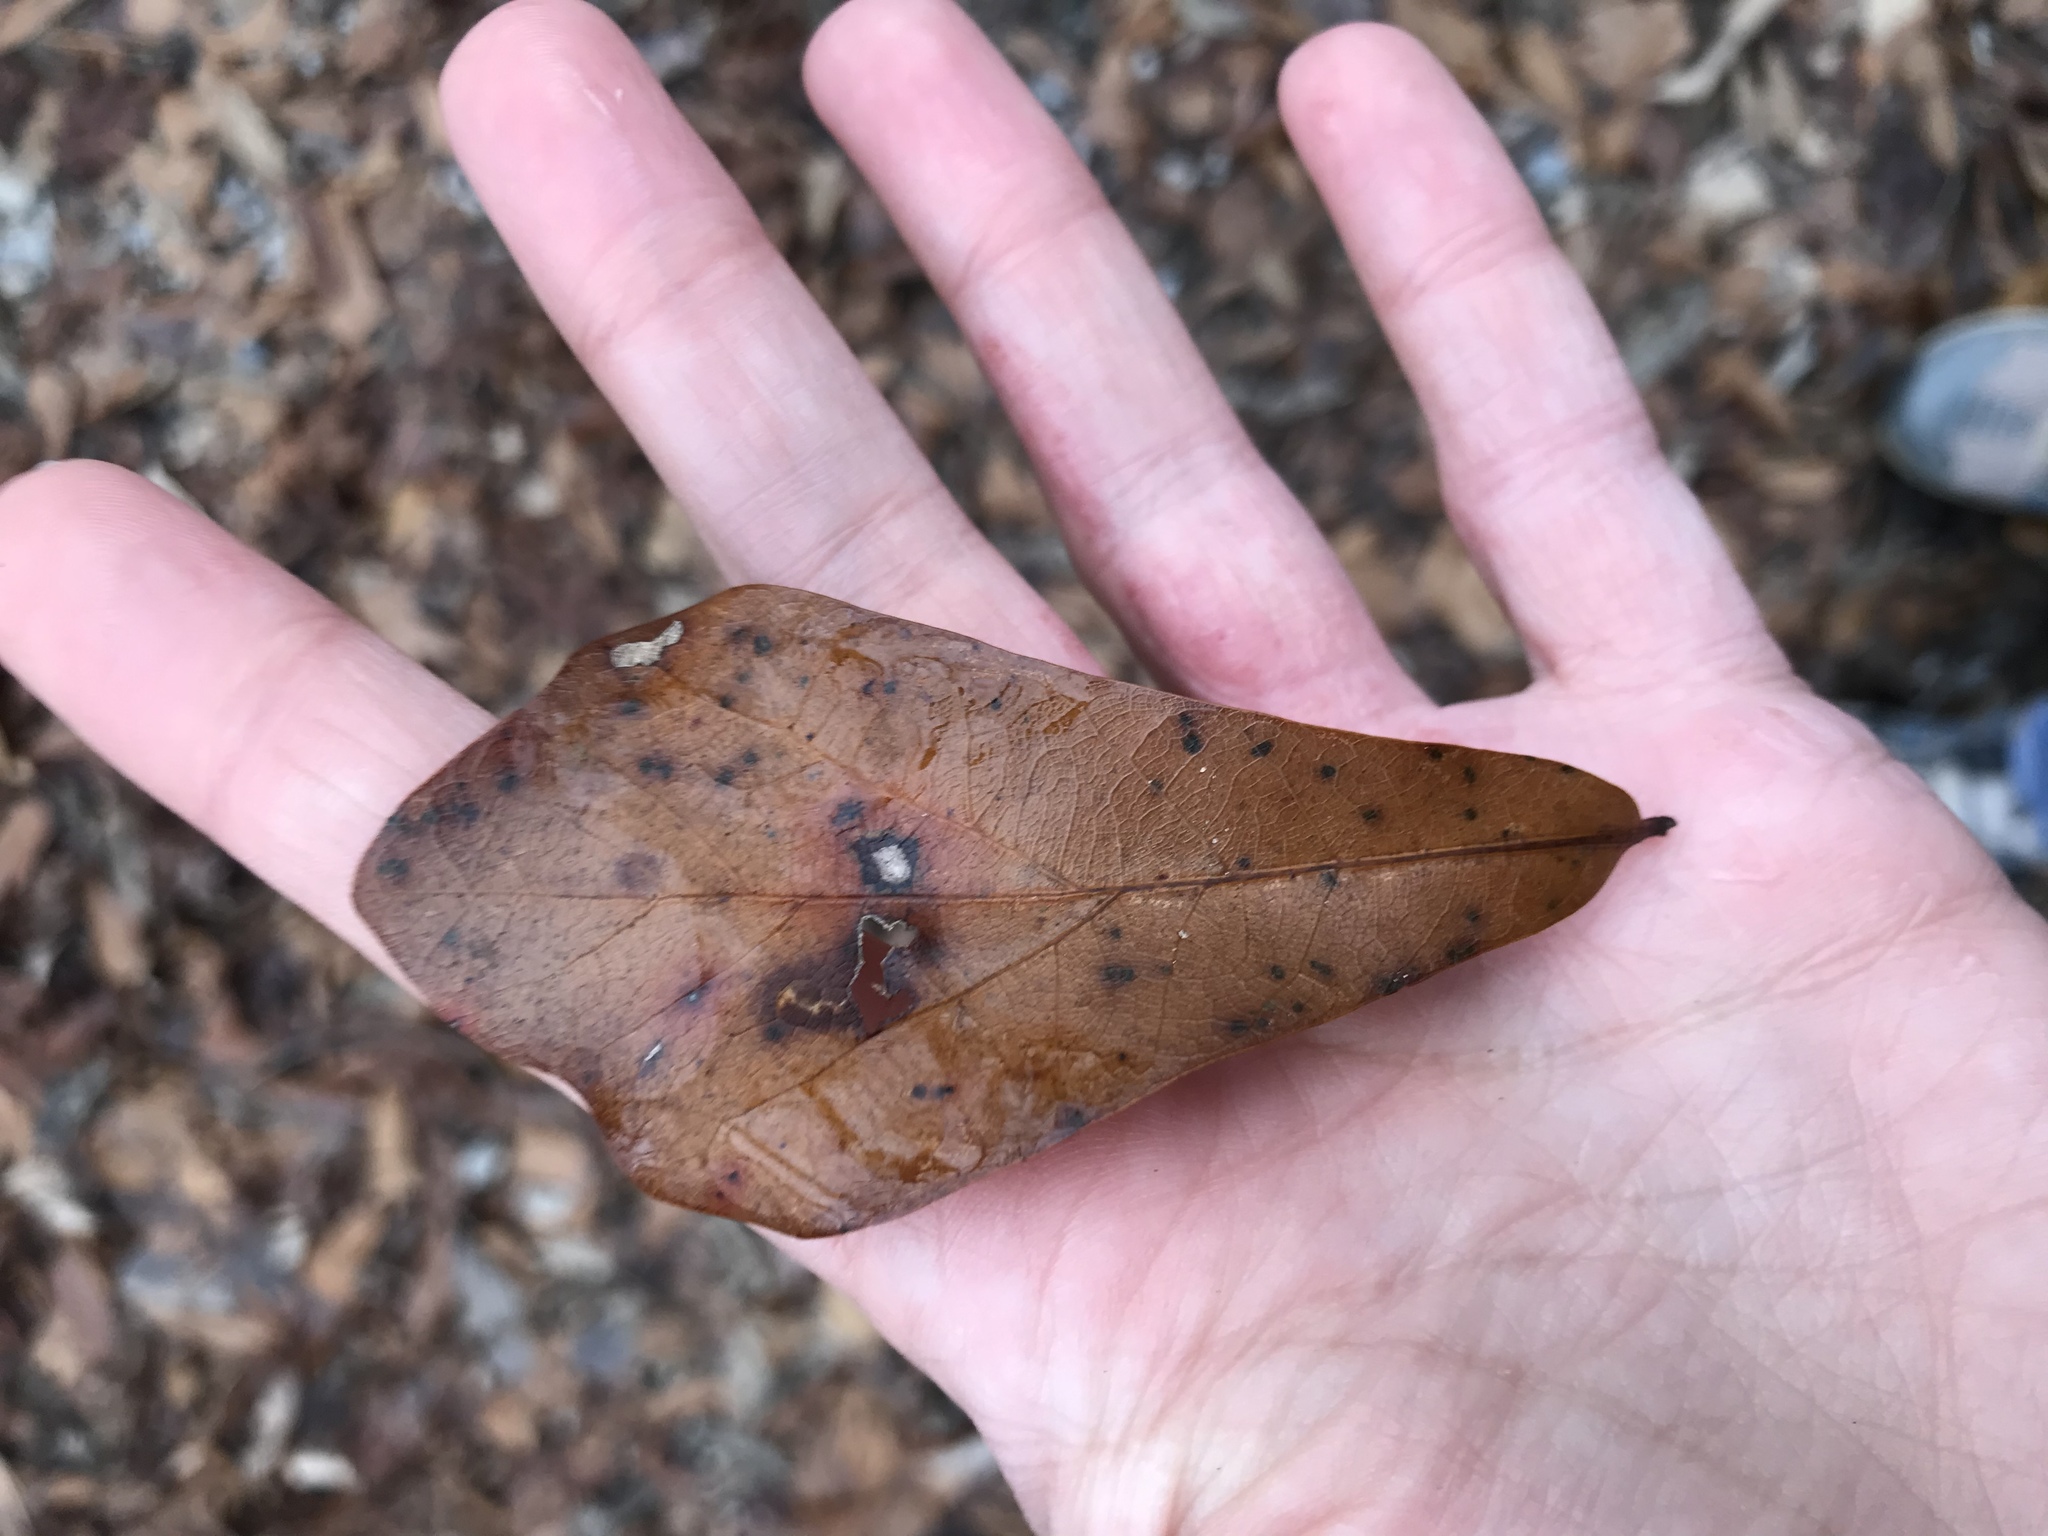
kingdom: Plantae
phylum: Tracheophyta
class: Magnoliopsida
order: Fagales
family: Fagaceae
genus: Quercus
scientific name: Quercus nigra
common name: Water oak
